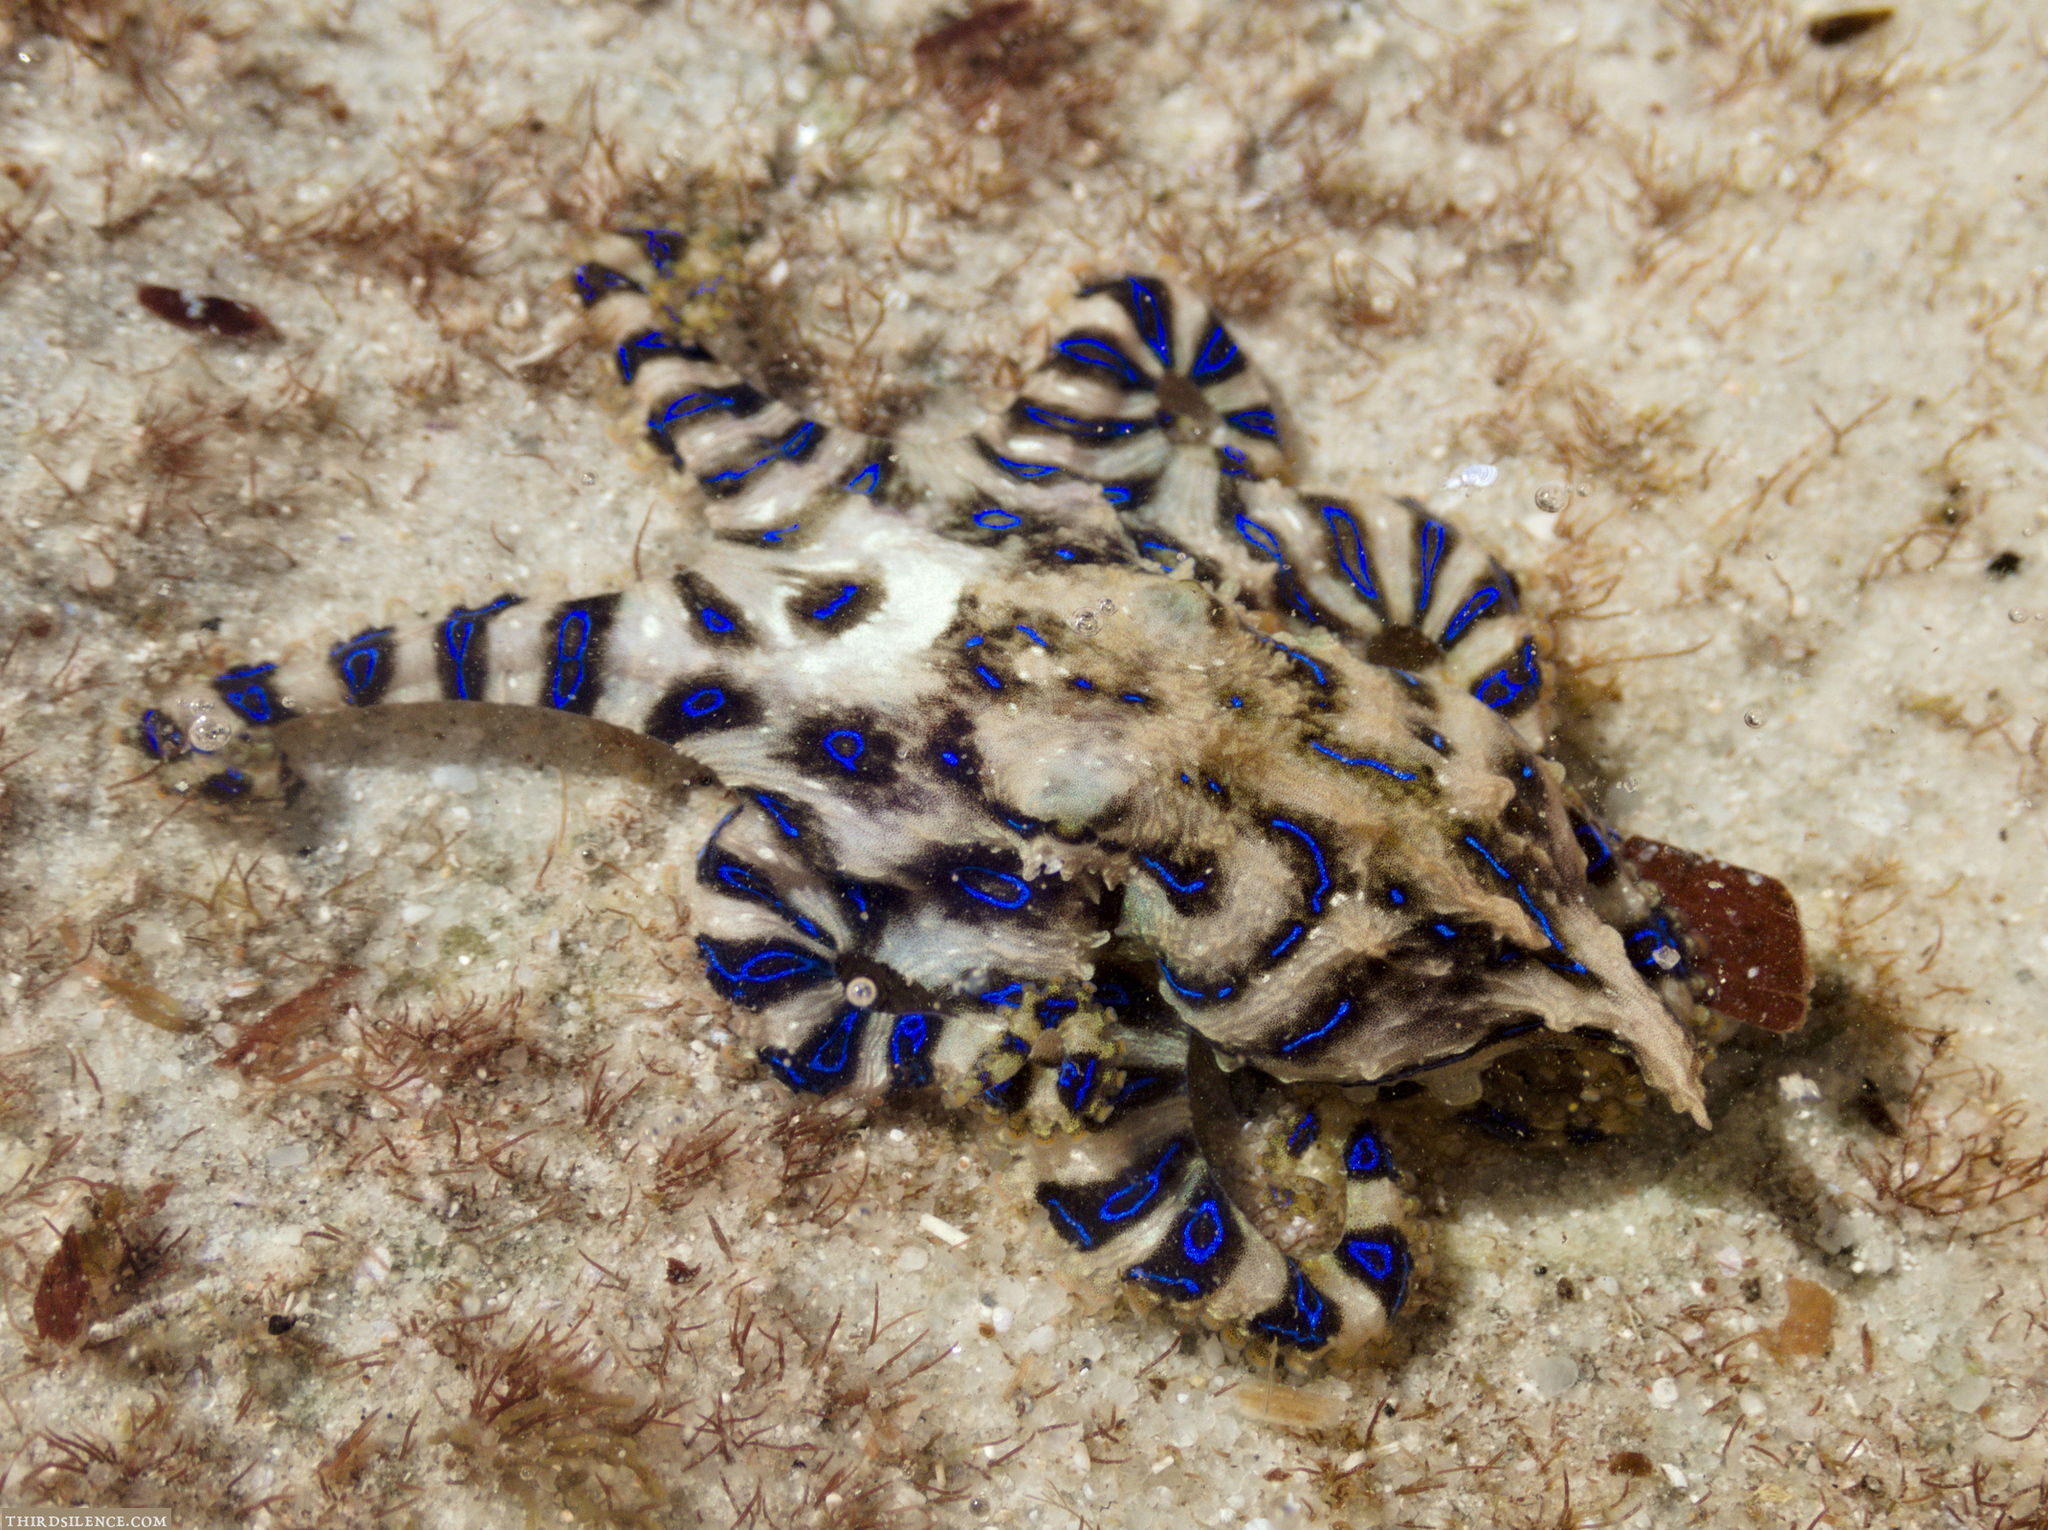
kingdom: Animalia
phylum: Mollusca
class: Cephalopoda
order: Octopoda
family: Octopodidae
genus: Hapalochlaena
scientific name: Hapalochlaena fasciata
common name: Blue-lined octopus
